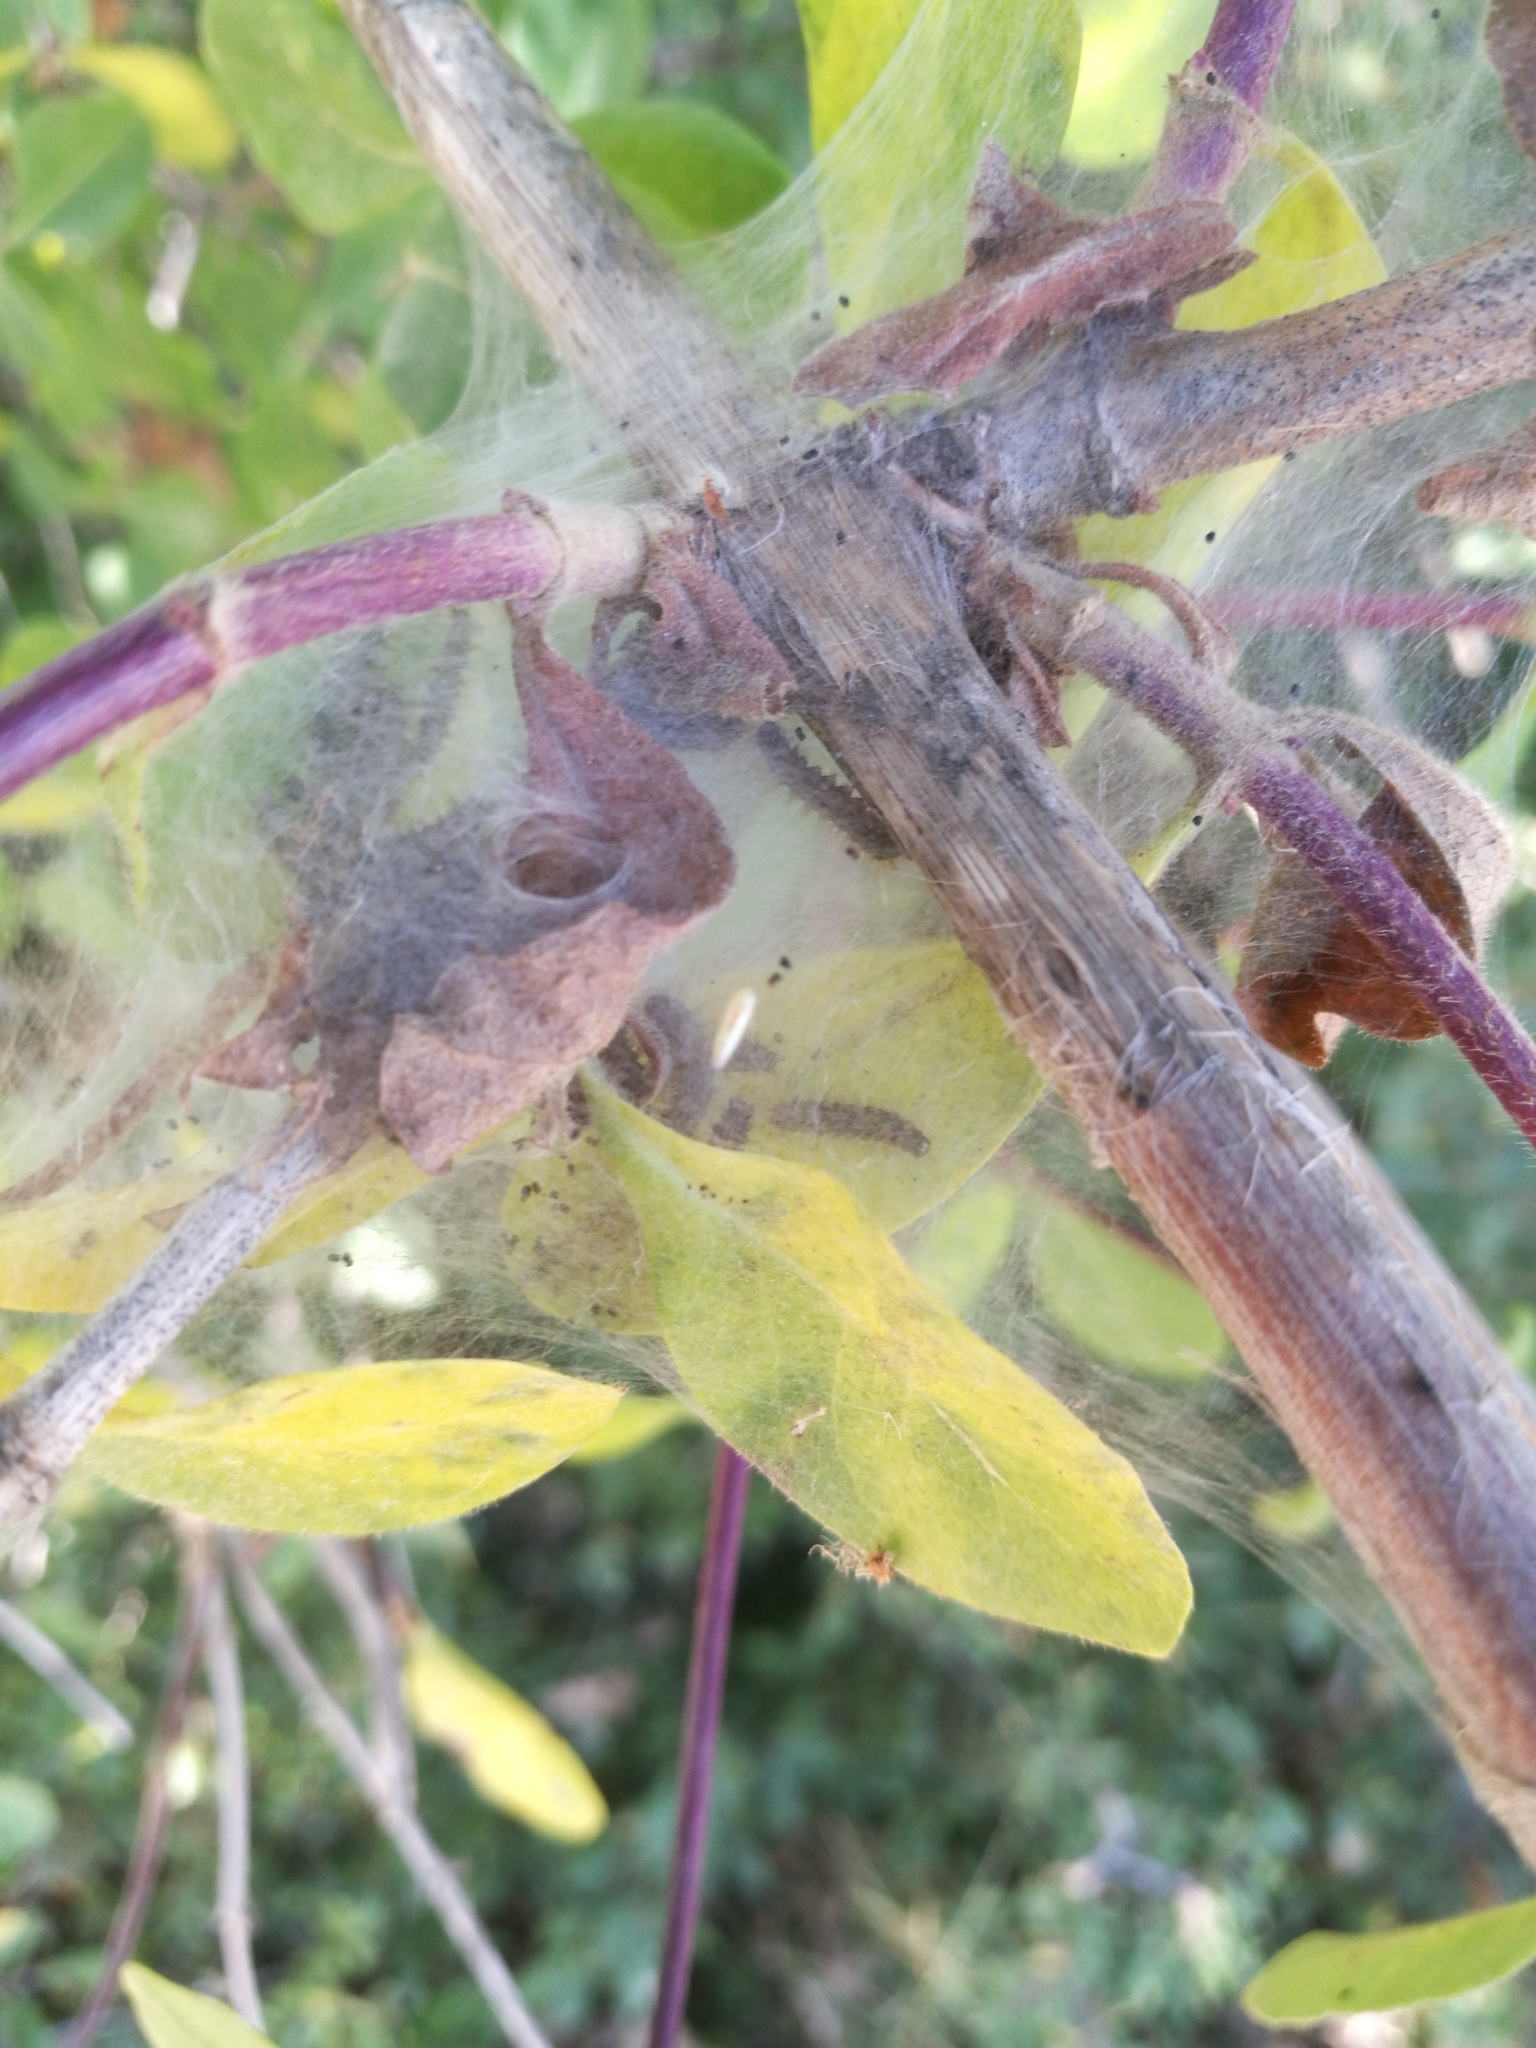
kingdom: Animalia
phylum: Arthropoda
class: Insecta
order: Lepidoptera
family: Nymphalidae
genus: Euphydryas
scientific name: Euphydryas aurinia
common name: Marsh fritillary
